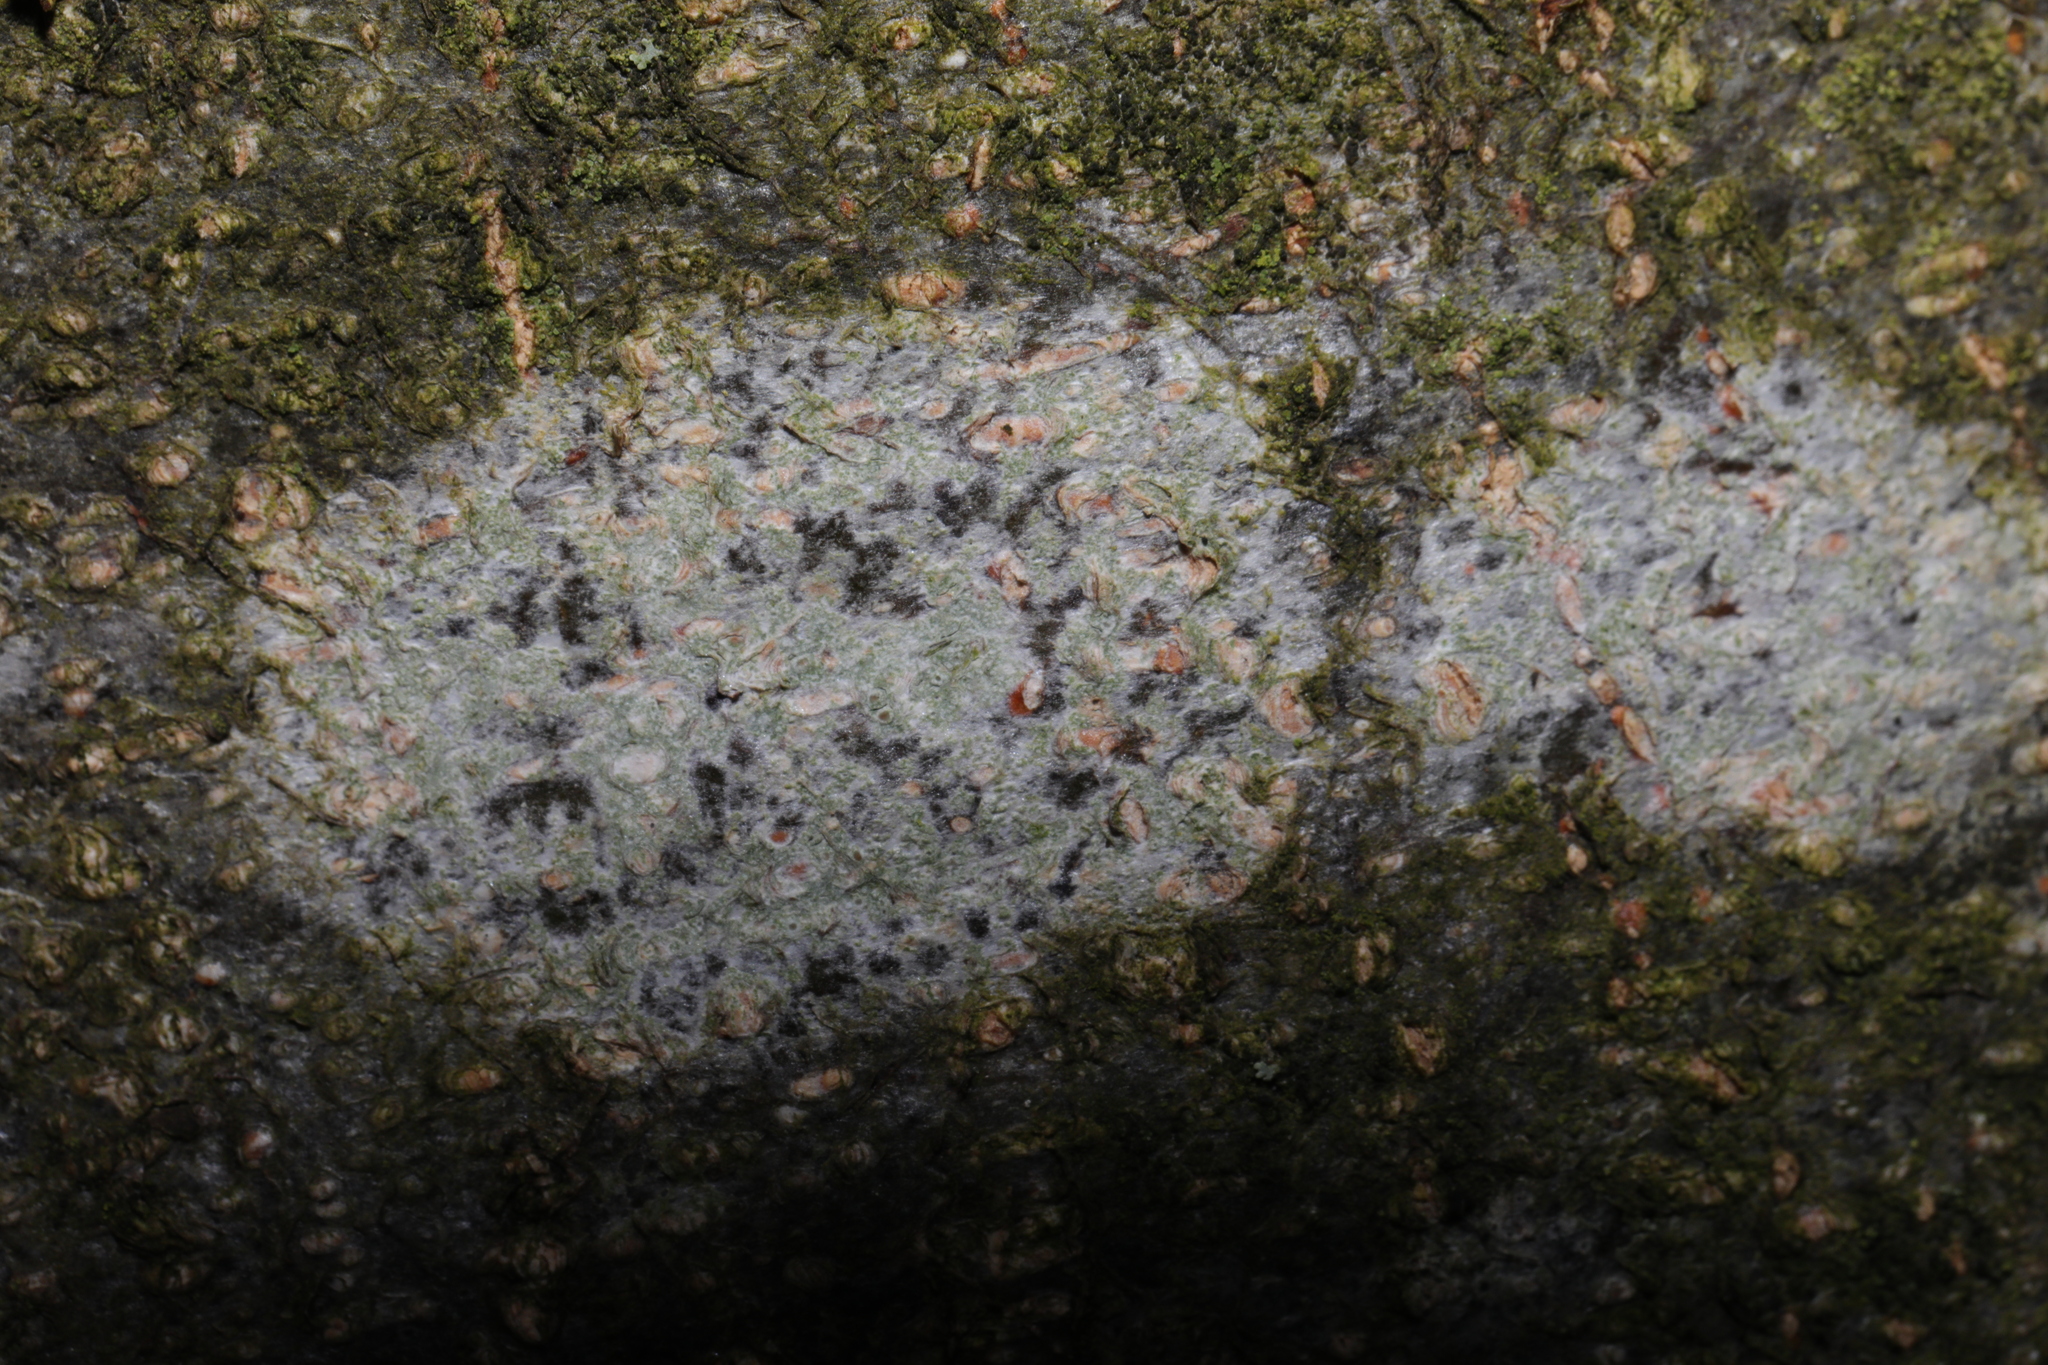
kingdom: Fungi
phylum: Ascomycota
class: Lecanoromycetes
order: Lecanorales
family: Lecanoraceae
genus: Lecanora
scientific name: Lecanora
